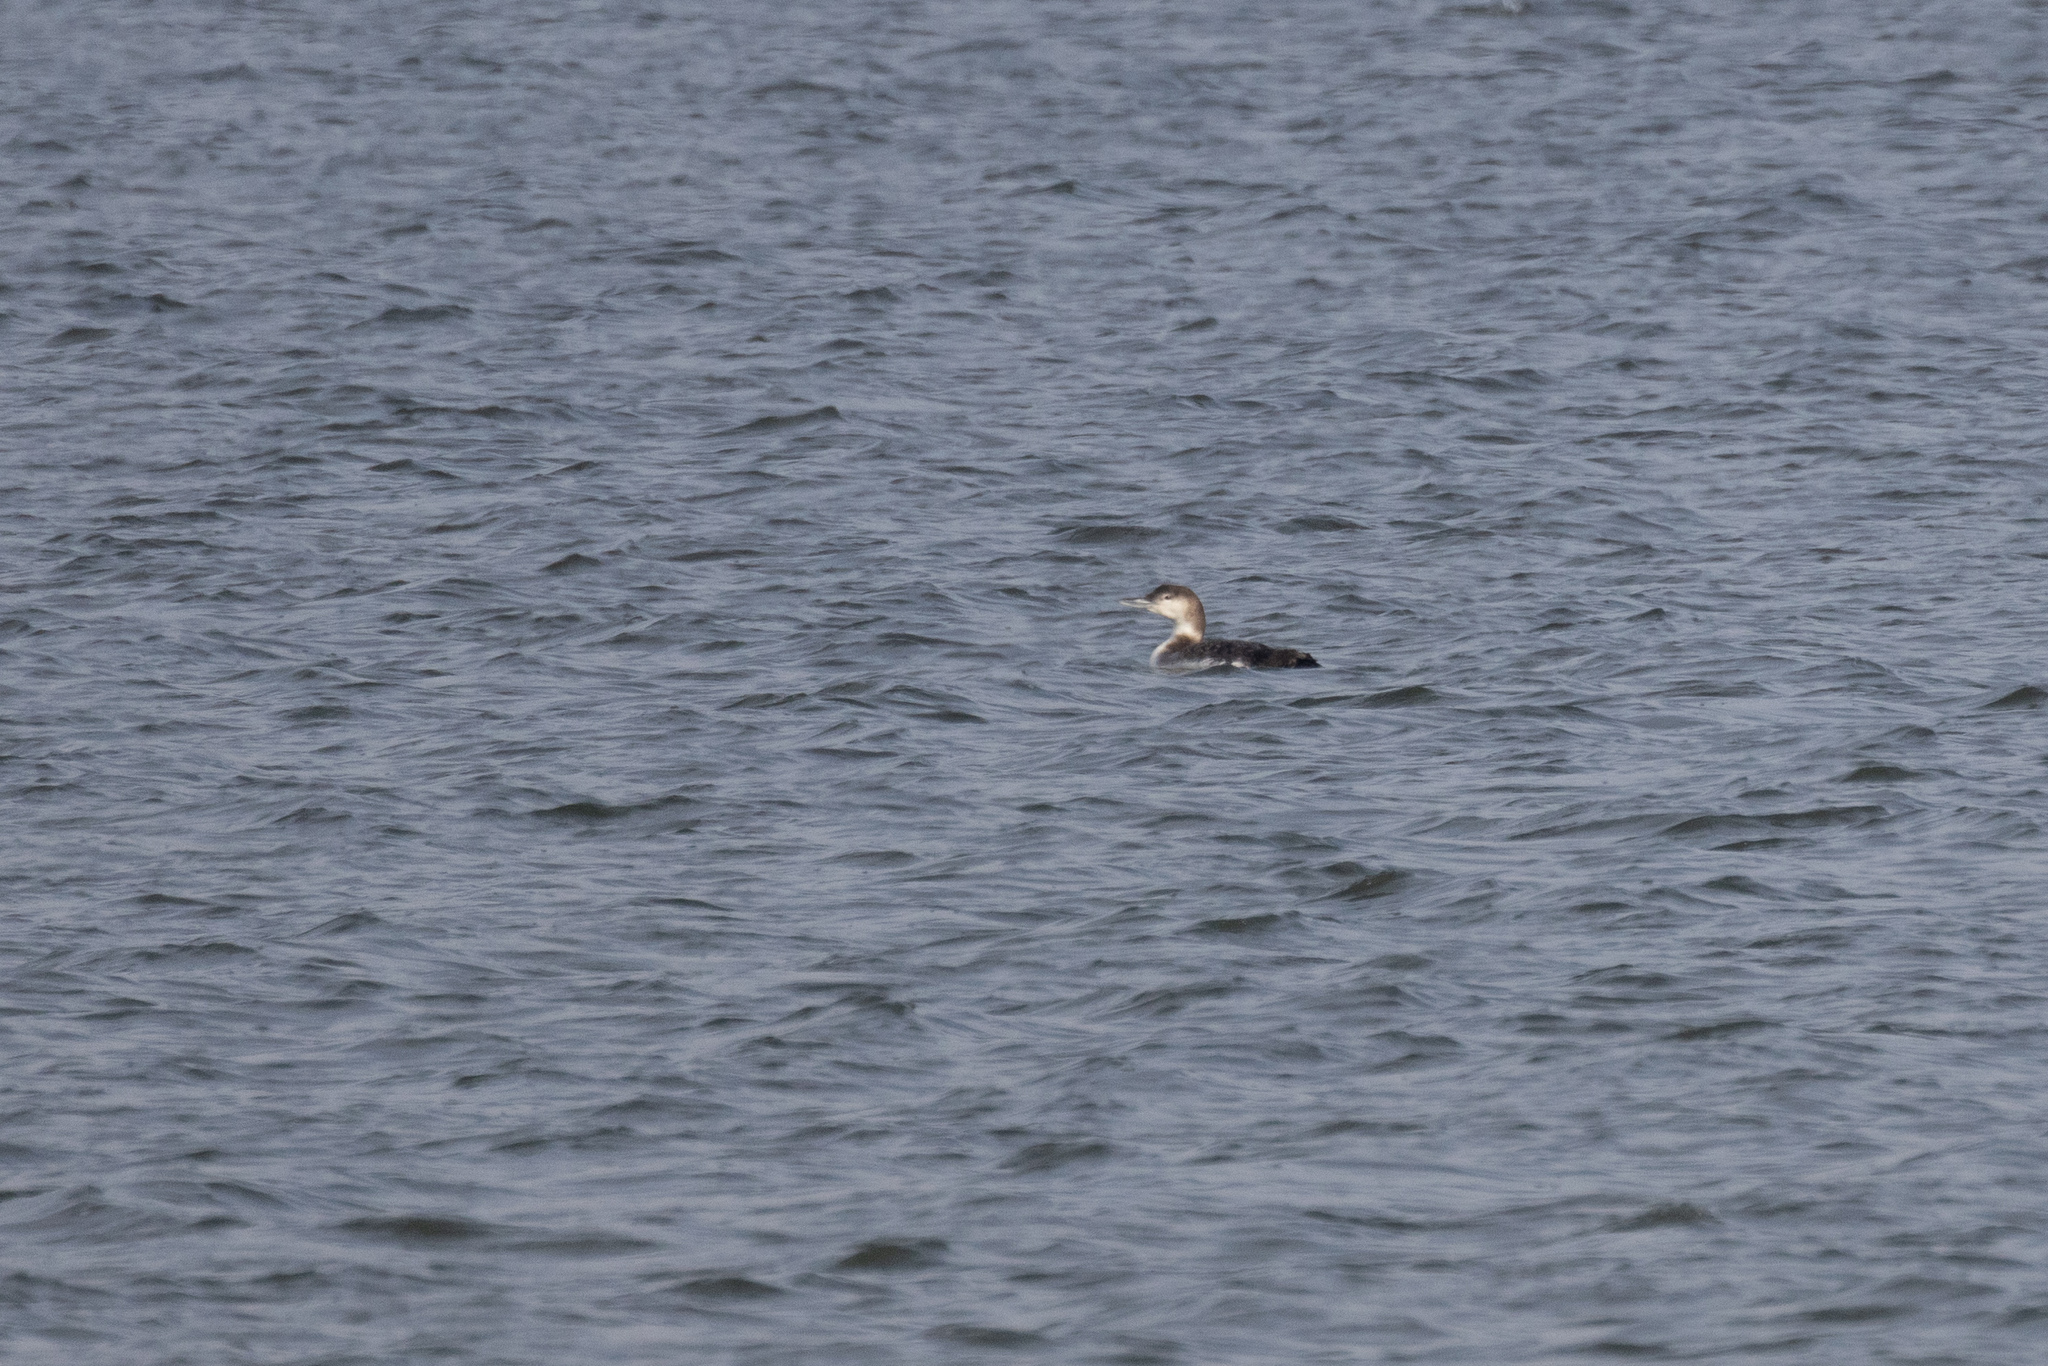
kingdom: Animalia
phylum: Chordata
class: Aves
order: Gaviiformes
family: Gaviidae
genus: Gavia
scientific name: Gavia immer
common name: Common loon
